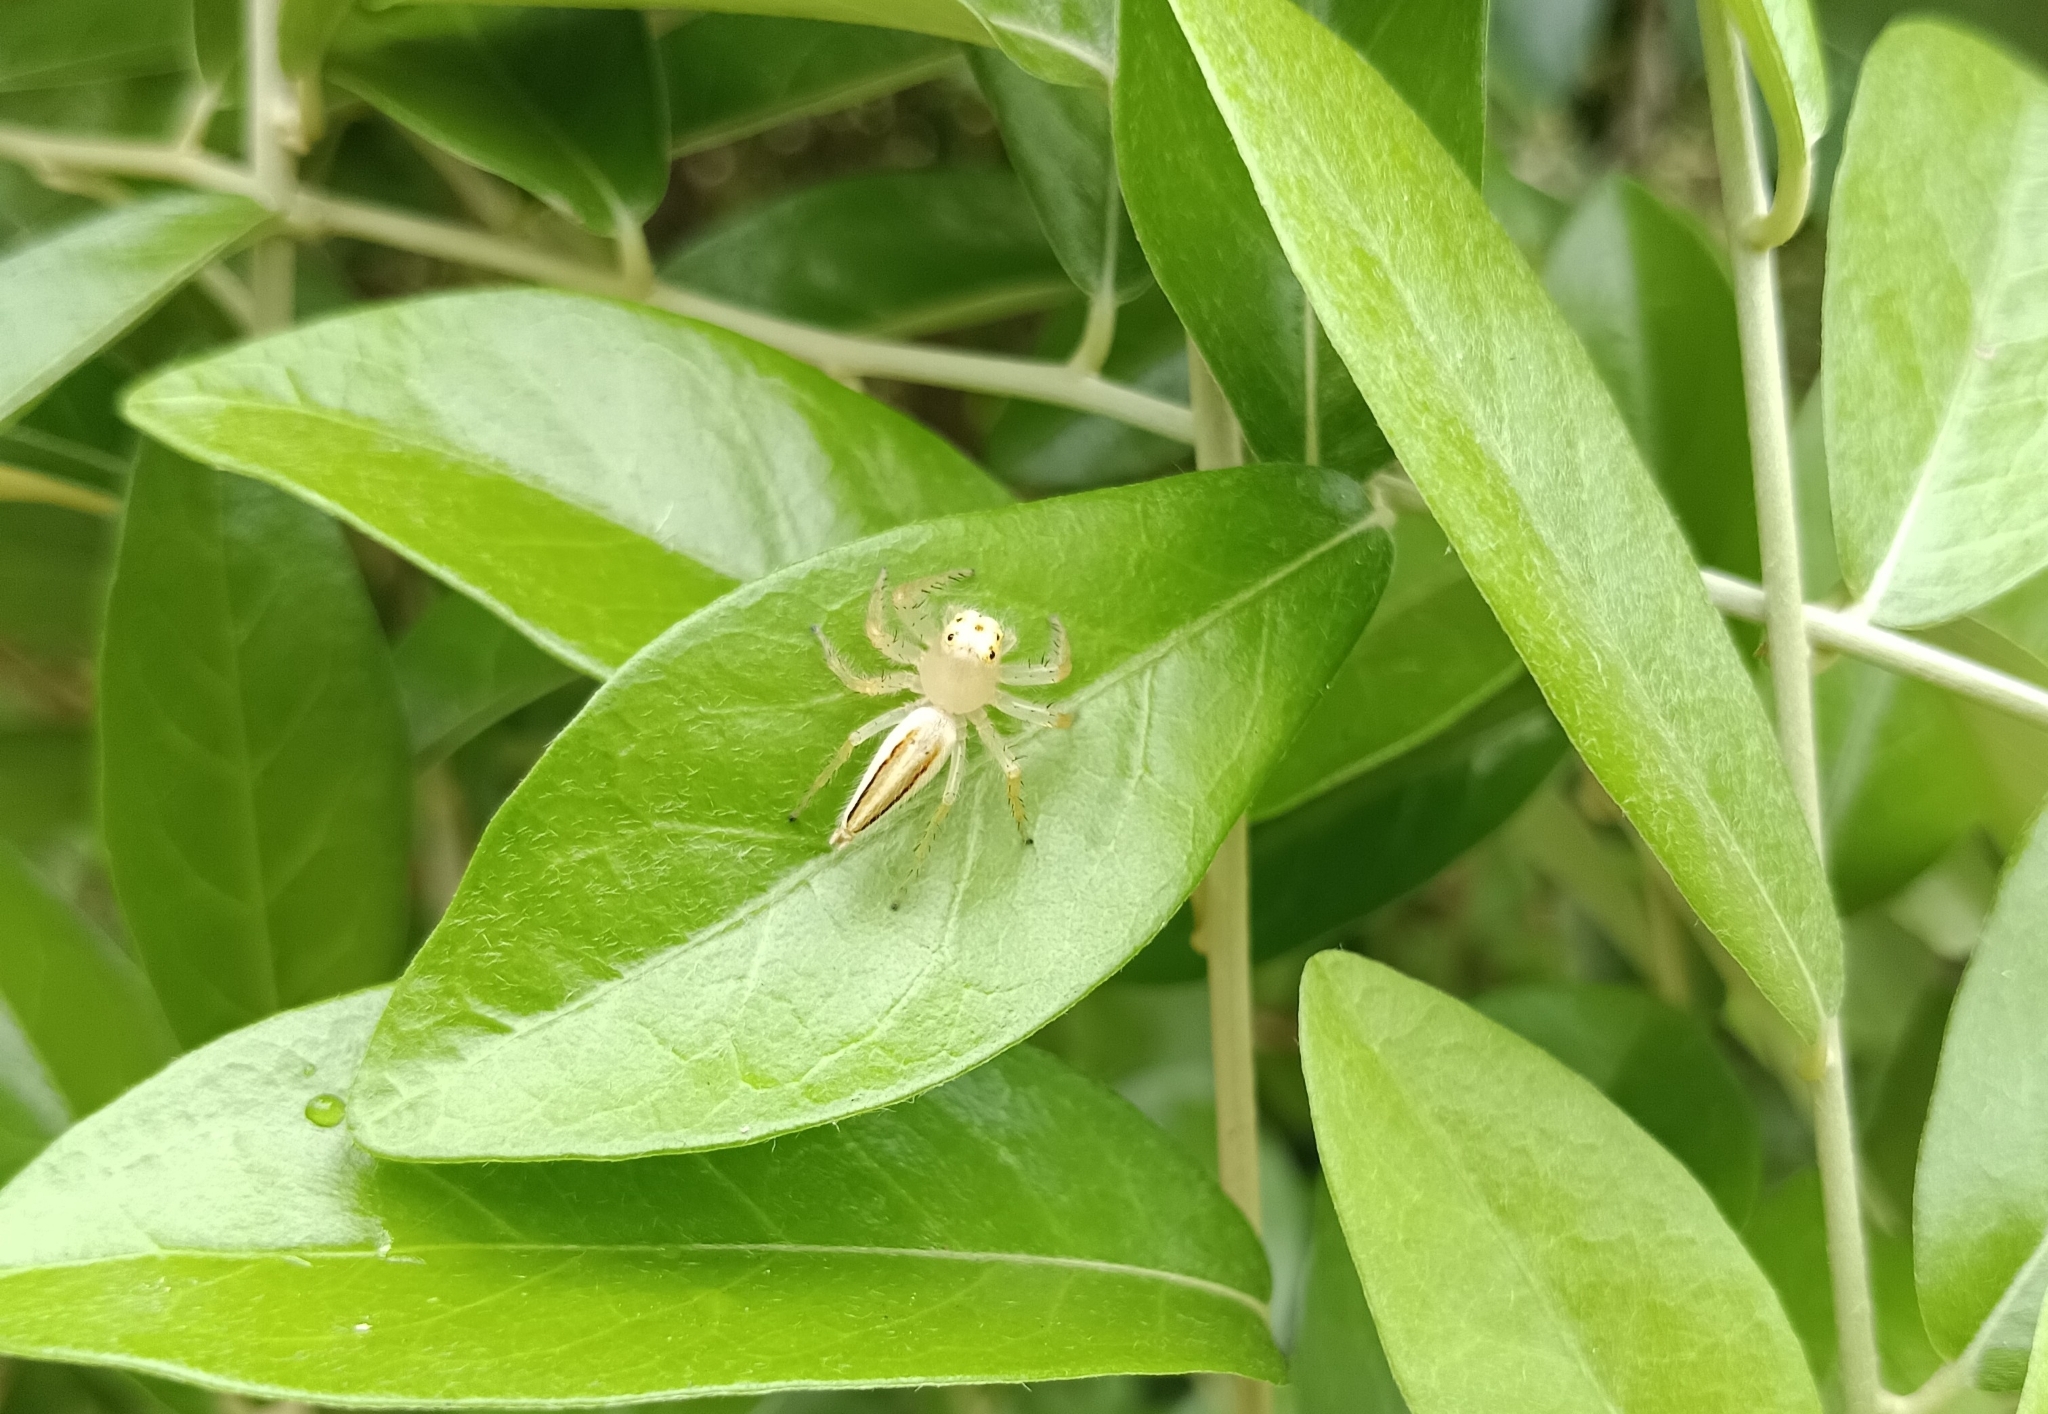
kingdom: Animalia
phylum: Arthropoda
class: Arachnida
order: Araneae
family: Salticidae
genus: Telamonia
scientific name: Telamonia dimidiata
